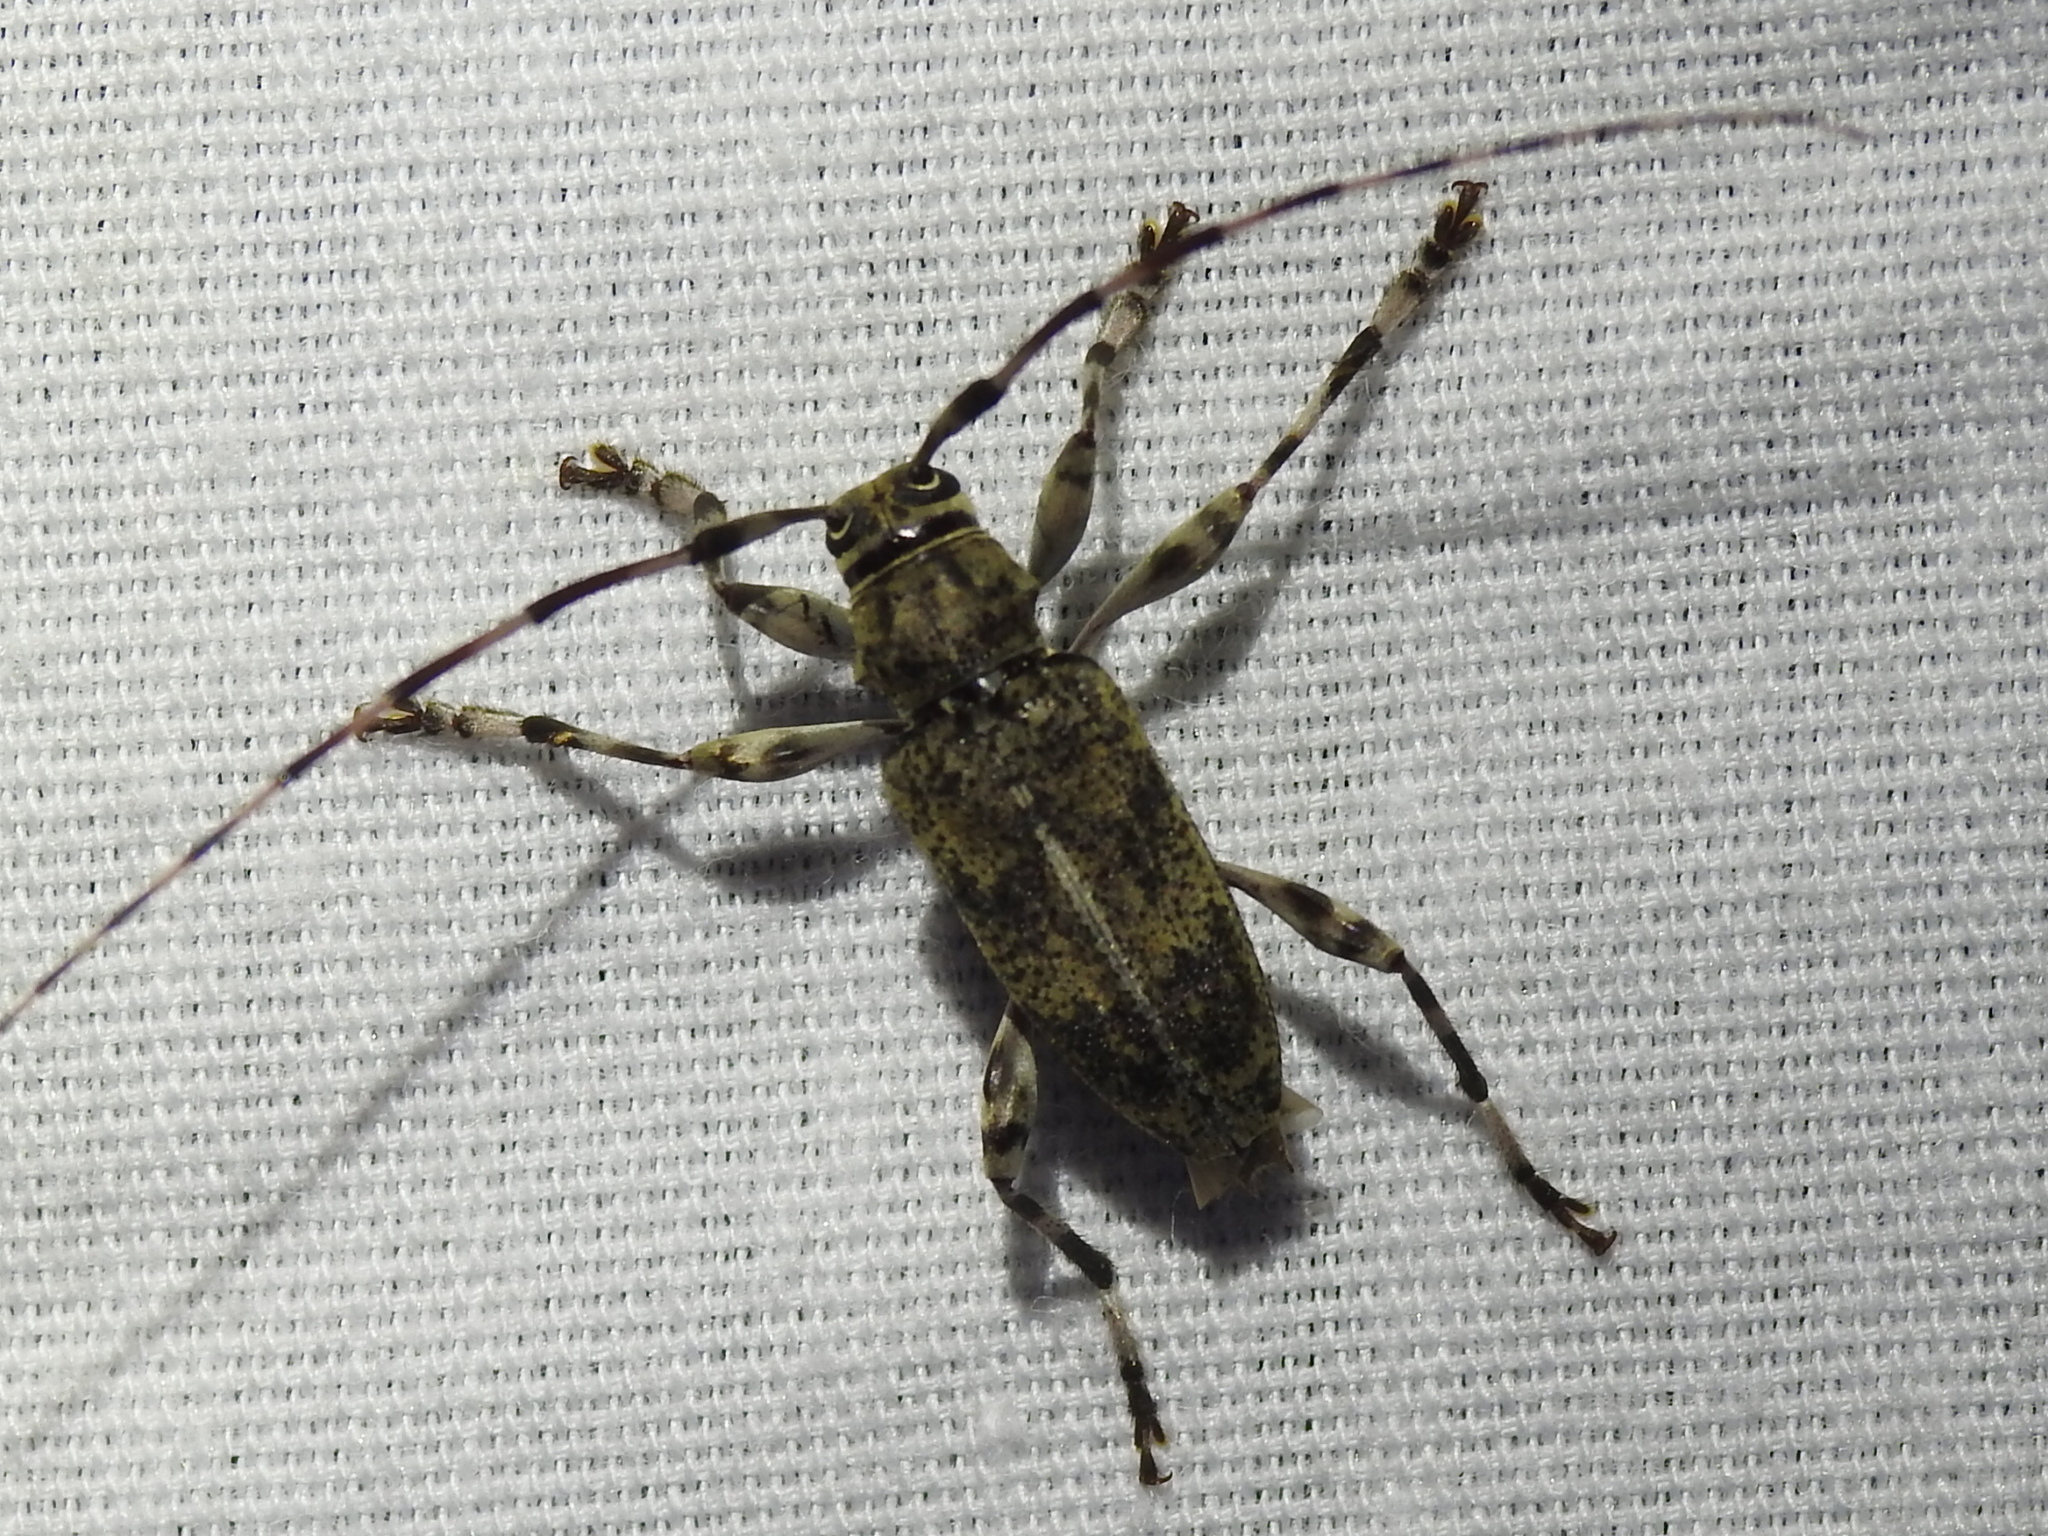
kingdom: Animalia
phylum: Arthropoda
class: Insecta
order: Coleoptera
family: Cerambycidae
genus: Graphisurus
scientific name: Graphisurus fasciatus
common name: Banded graphisurus
